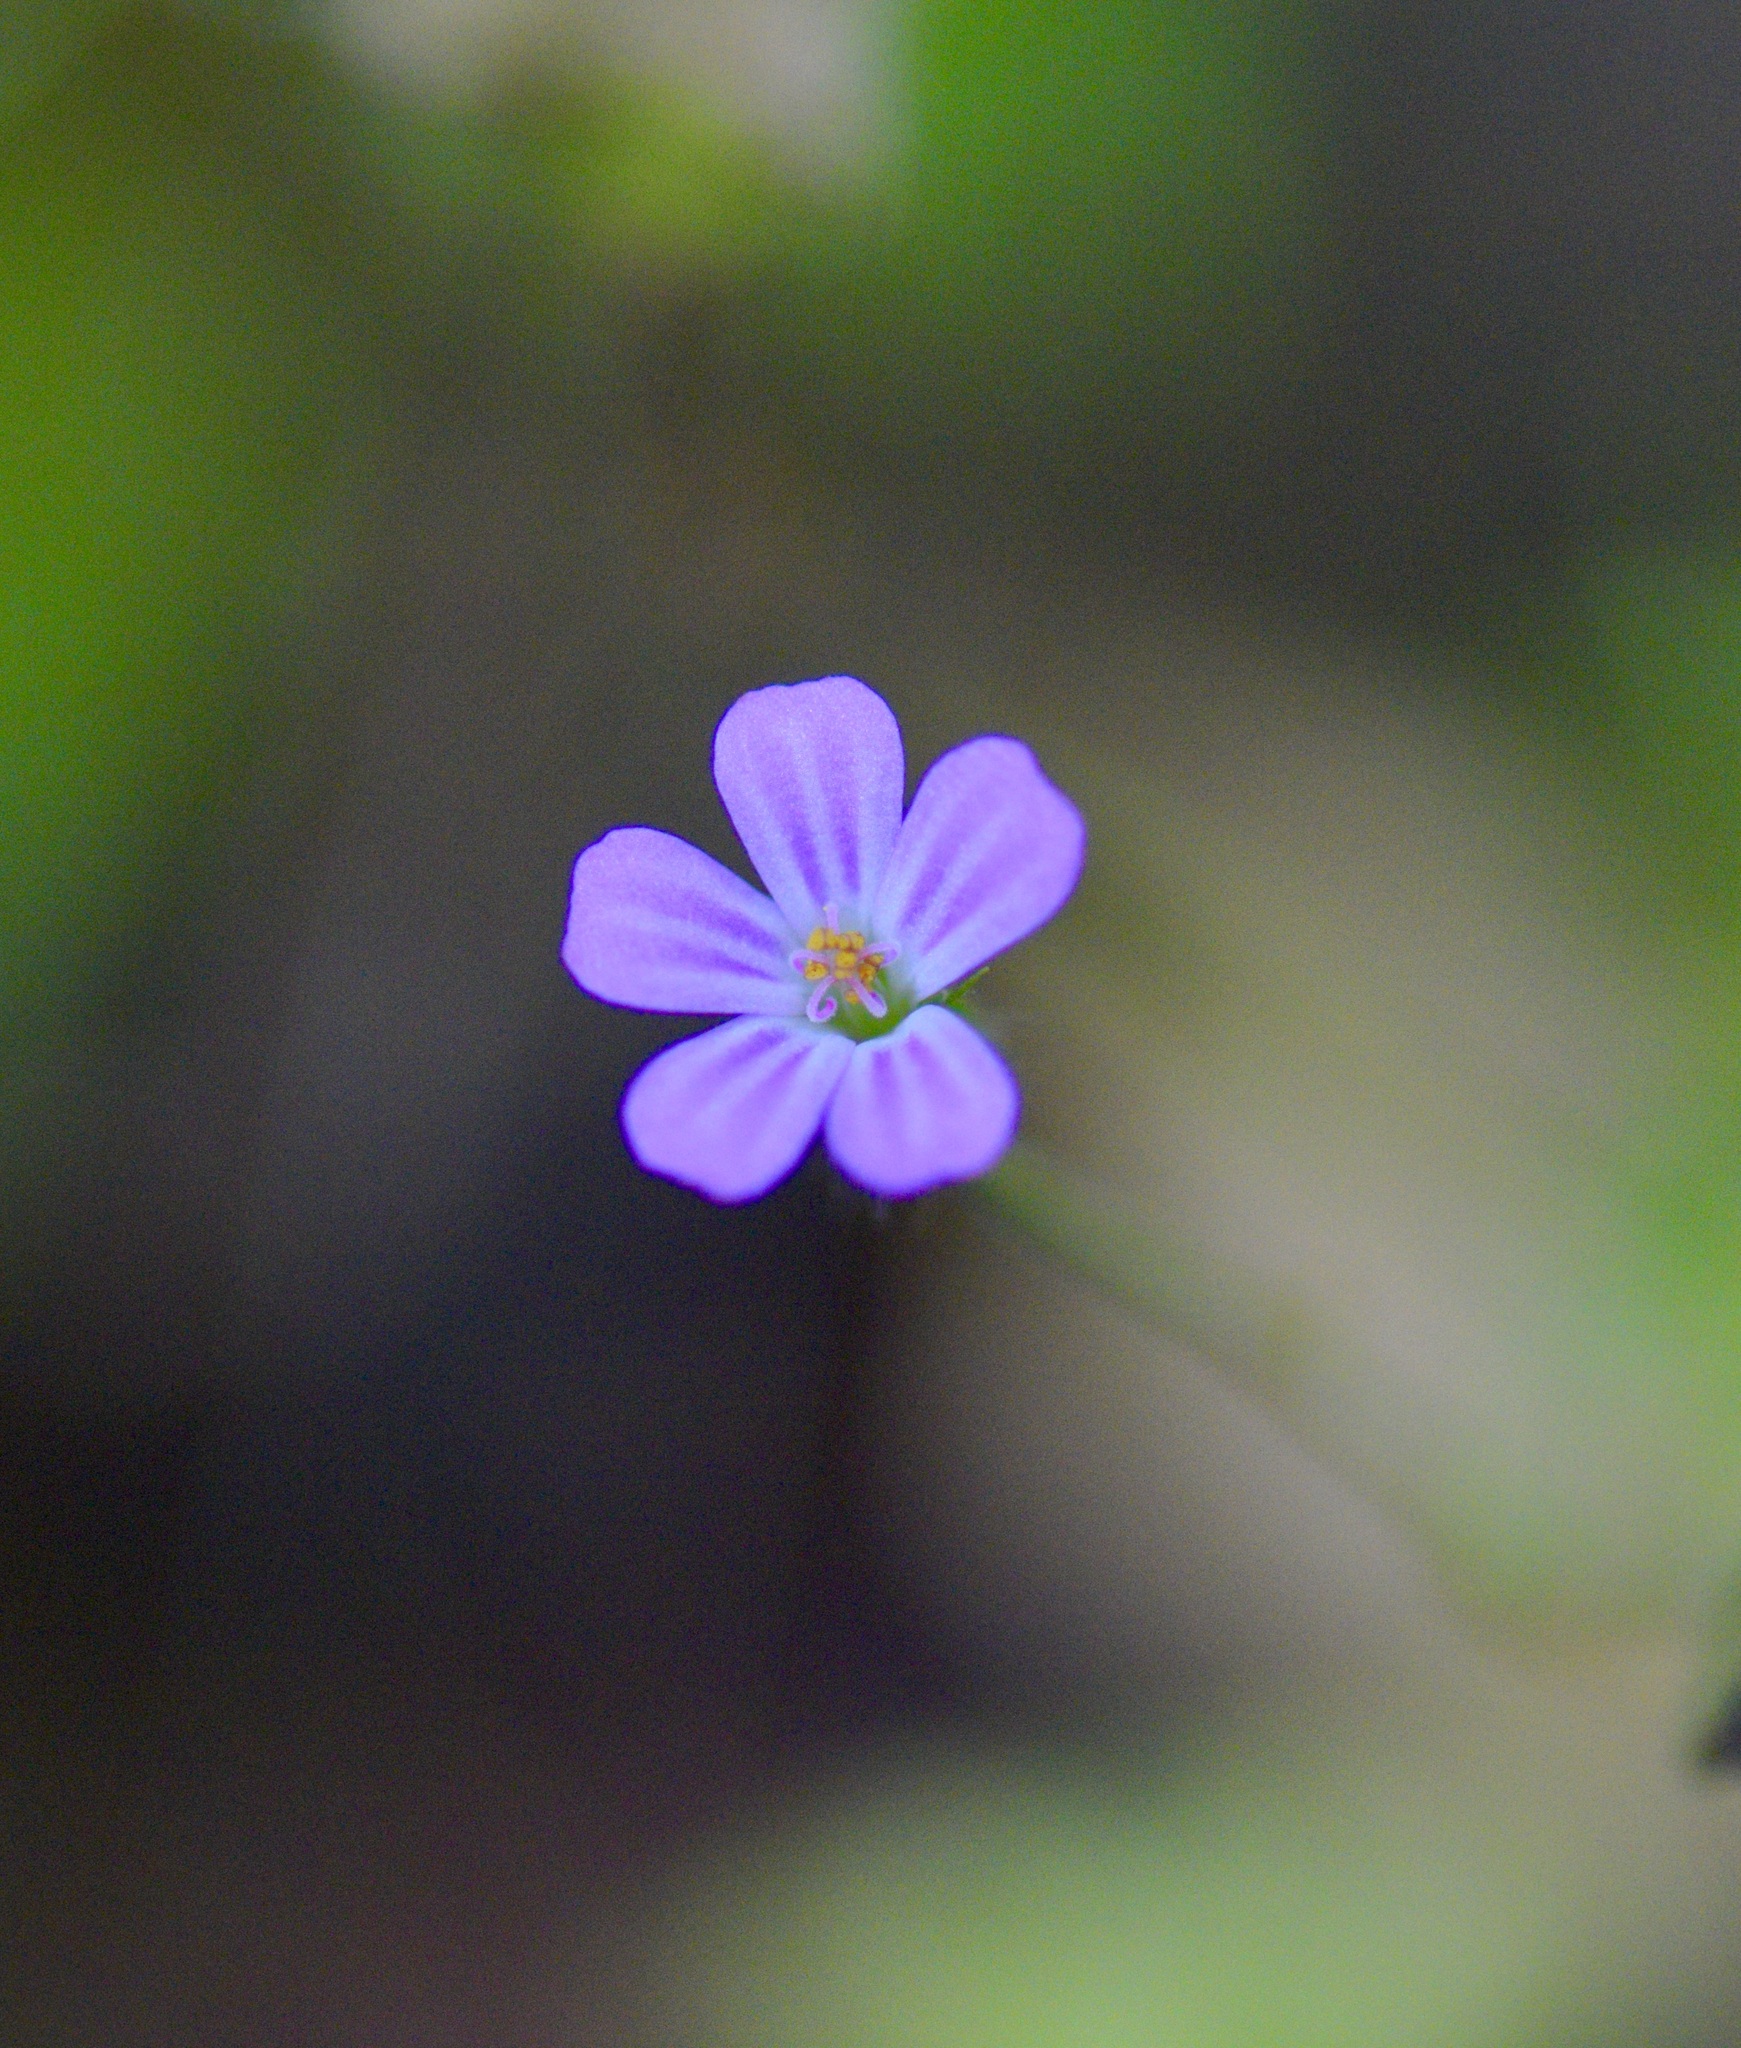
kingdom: Plantae
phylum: Tracheophyta
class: Magnoliopsida
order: Geraniales
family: Geraniaceae
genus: Geranium
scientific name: Geranium robertianum
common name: Herb-robert
